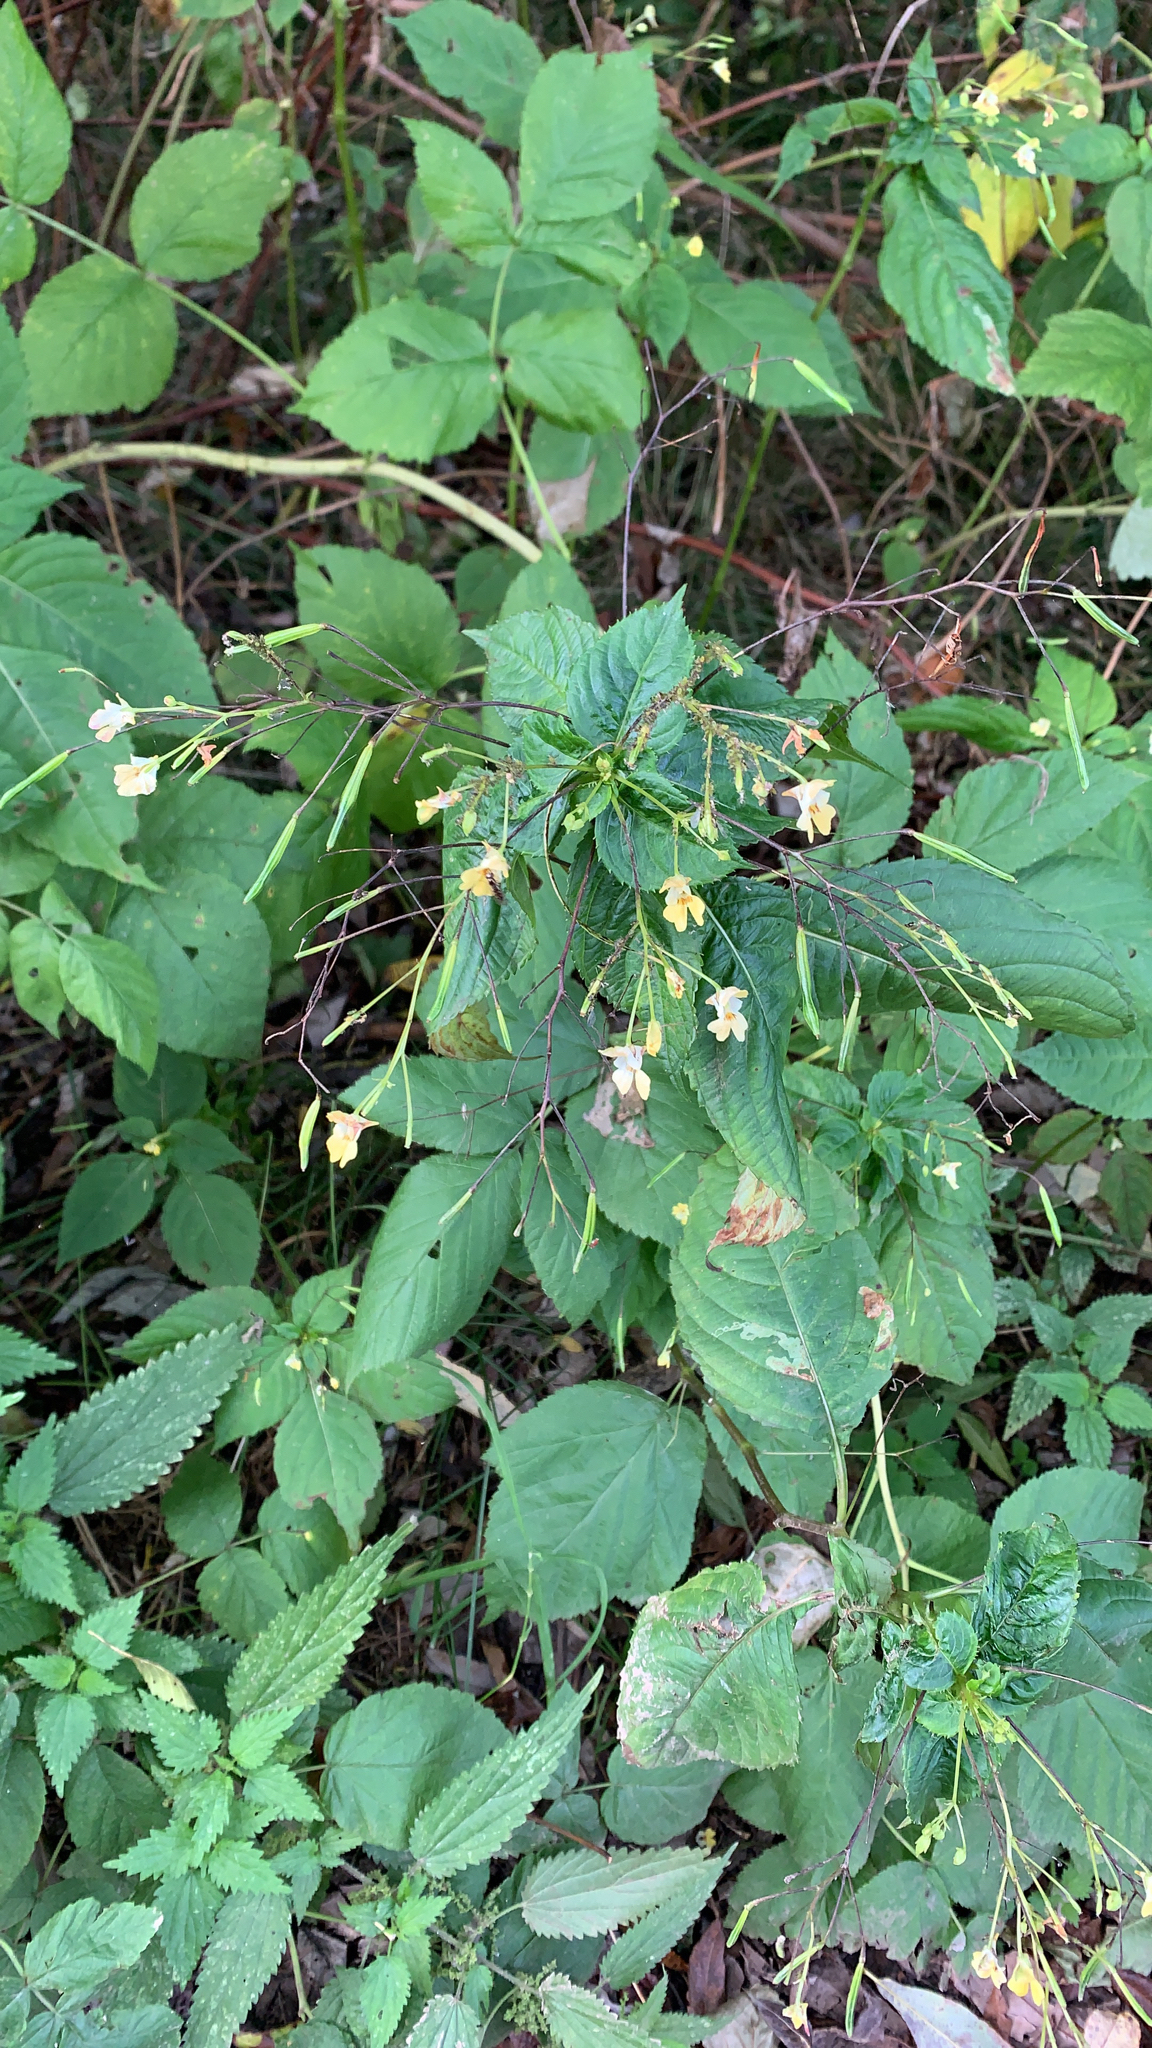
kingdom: Plantae
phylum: Tracheophyta
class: Magnoliopsida
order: Ericales
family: Balsaminaceae
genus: Impatiens
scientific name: Impatiens parviflora
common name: Small balsam
